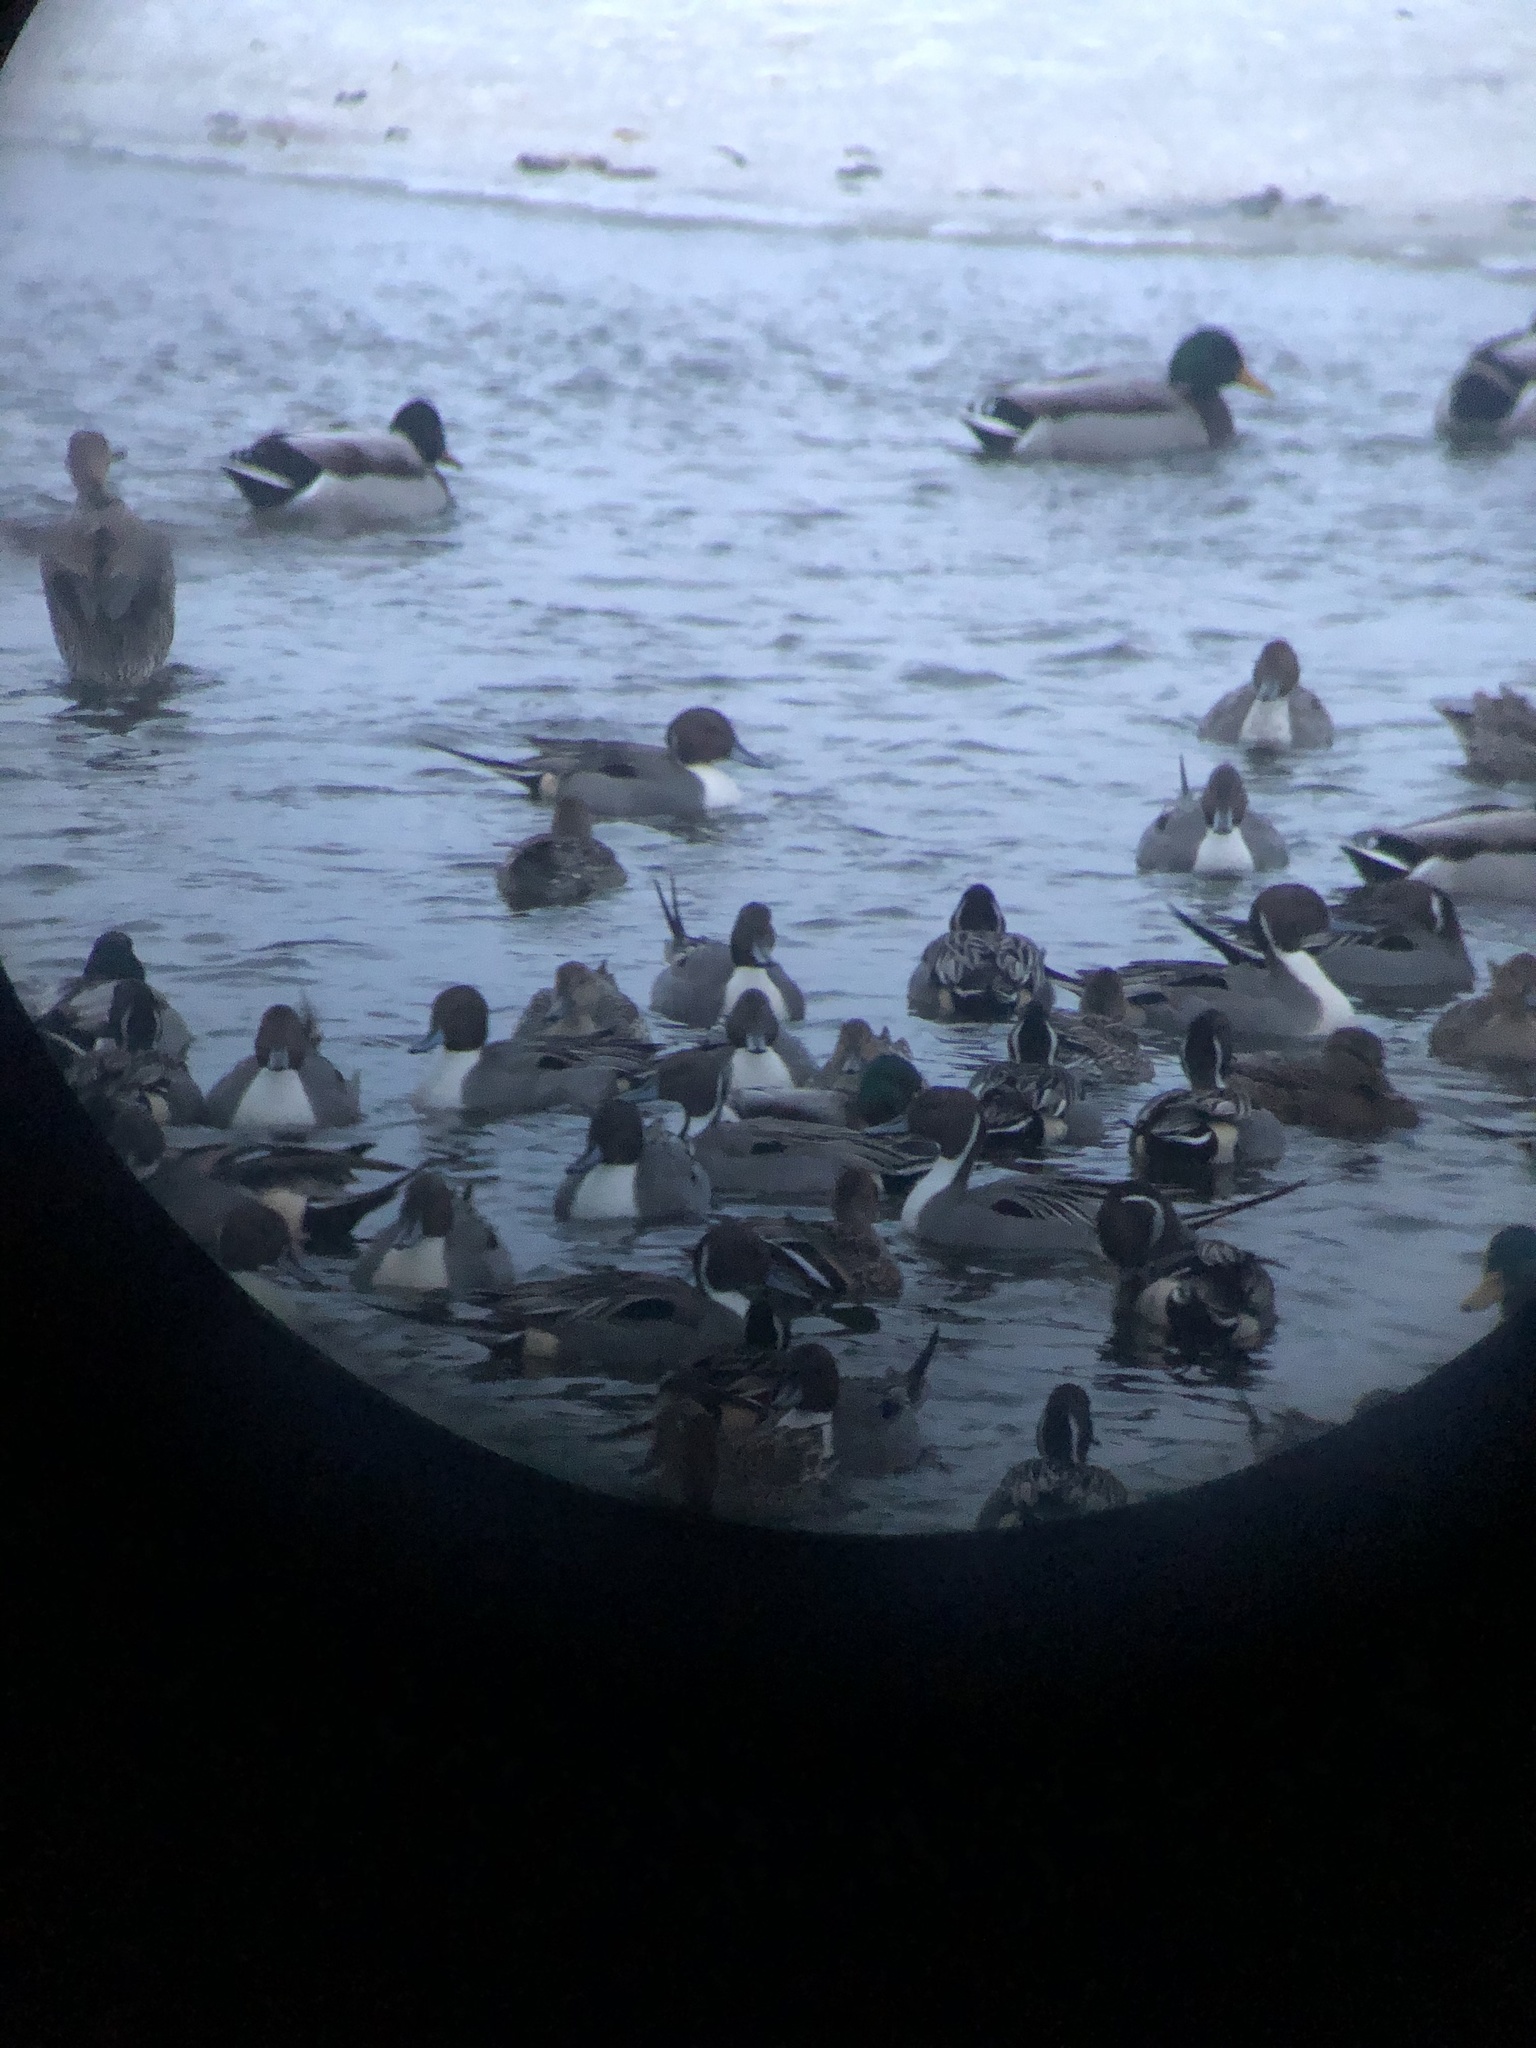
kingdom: Animalia
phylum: Chordata
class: Aves
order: Anseriformes
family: Anatidae
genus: Anas
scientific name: Anas acuta
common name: Northern pintail
